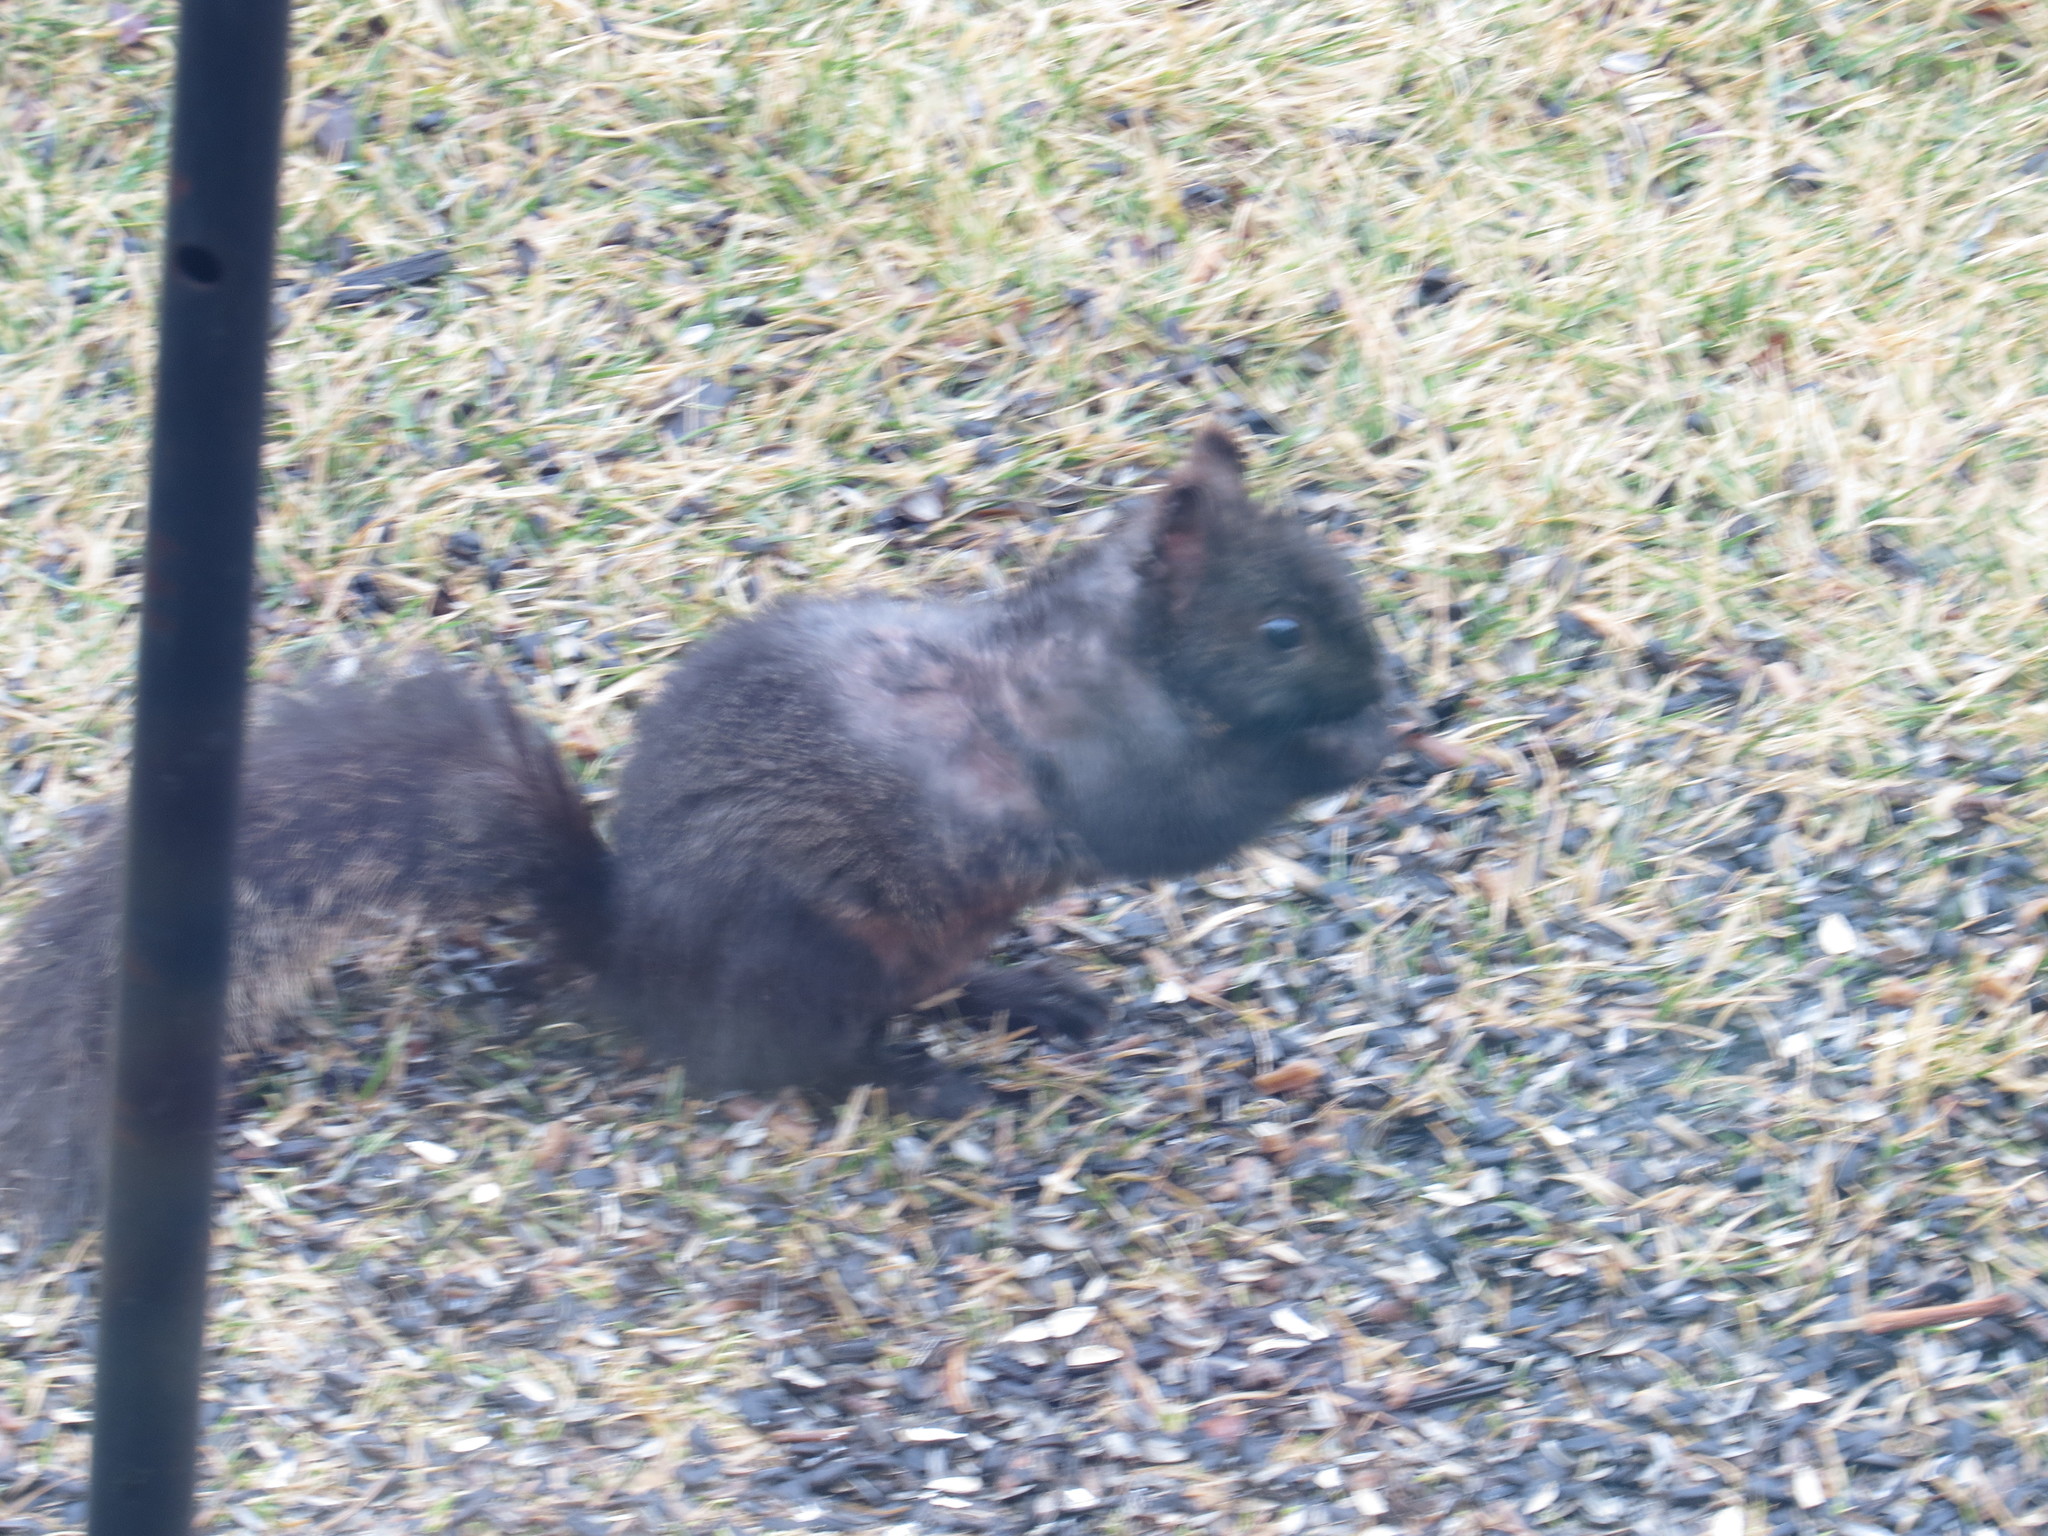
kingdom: Animalia
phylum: Chordata
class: Mammalia
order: Rodentia
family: Sciuridae
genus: Sciurus
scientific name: Sciurus carolinensis
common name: Eastern gray squirrel
